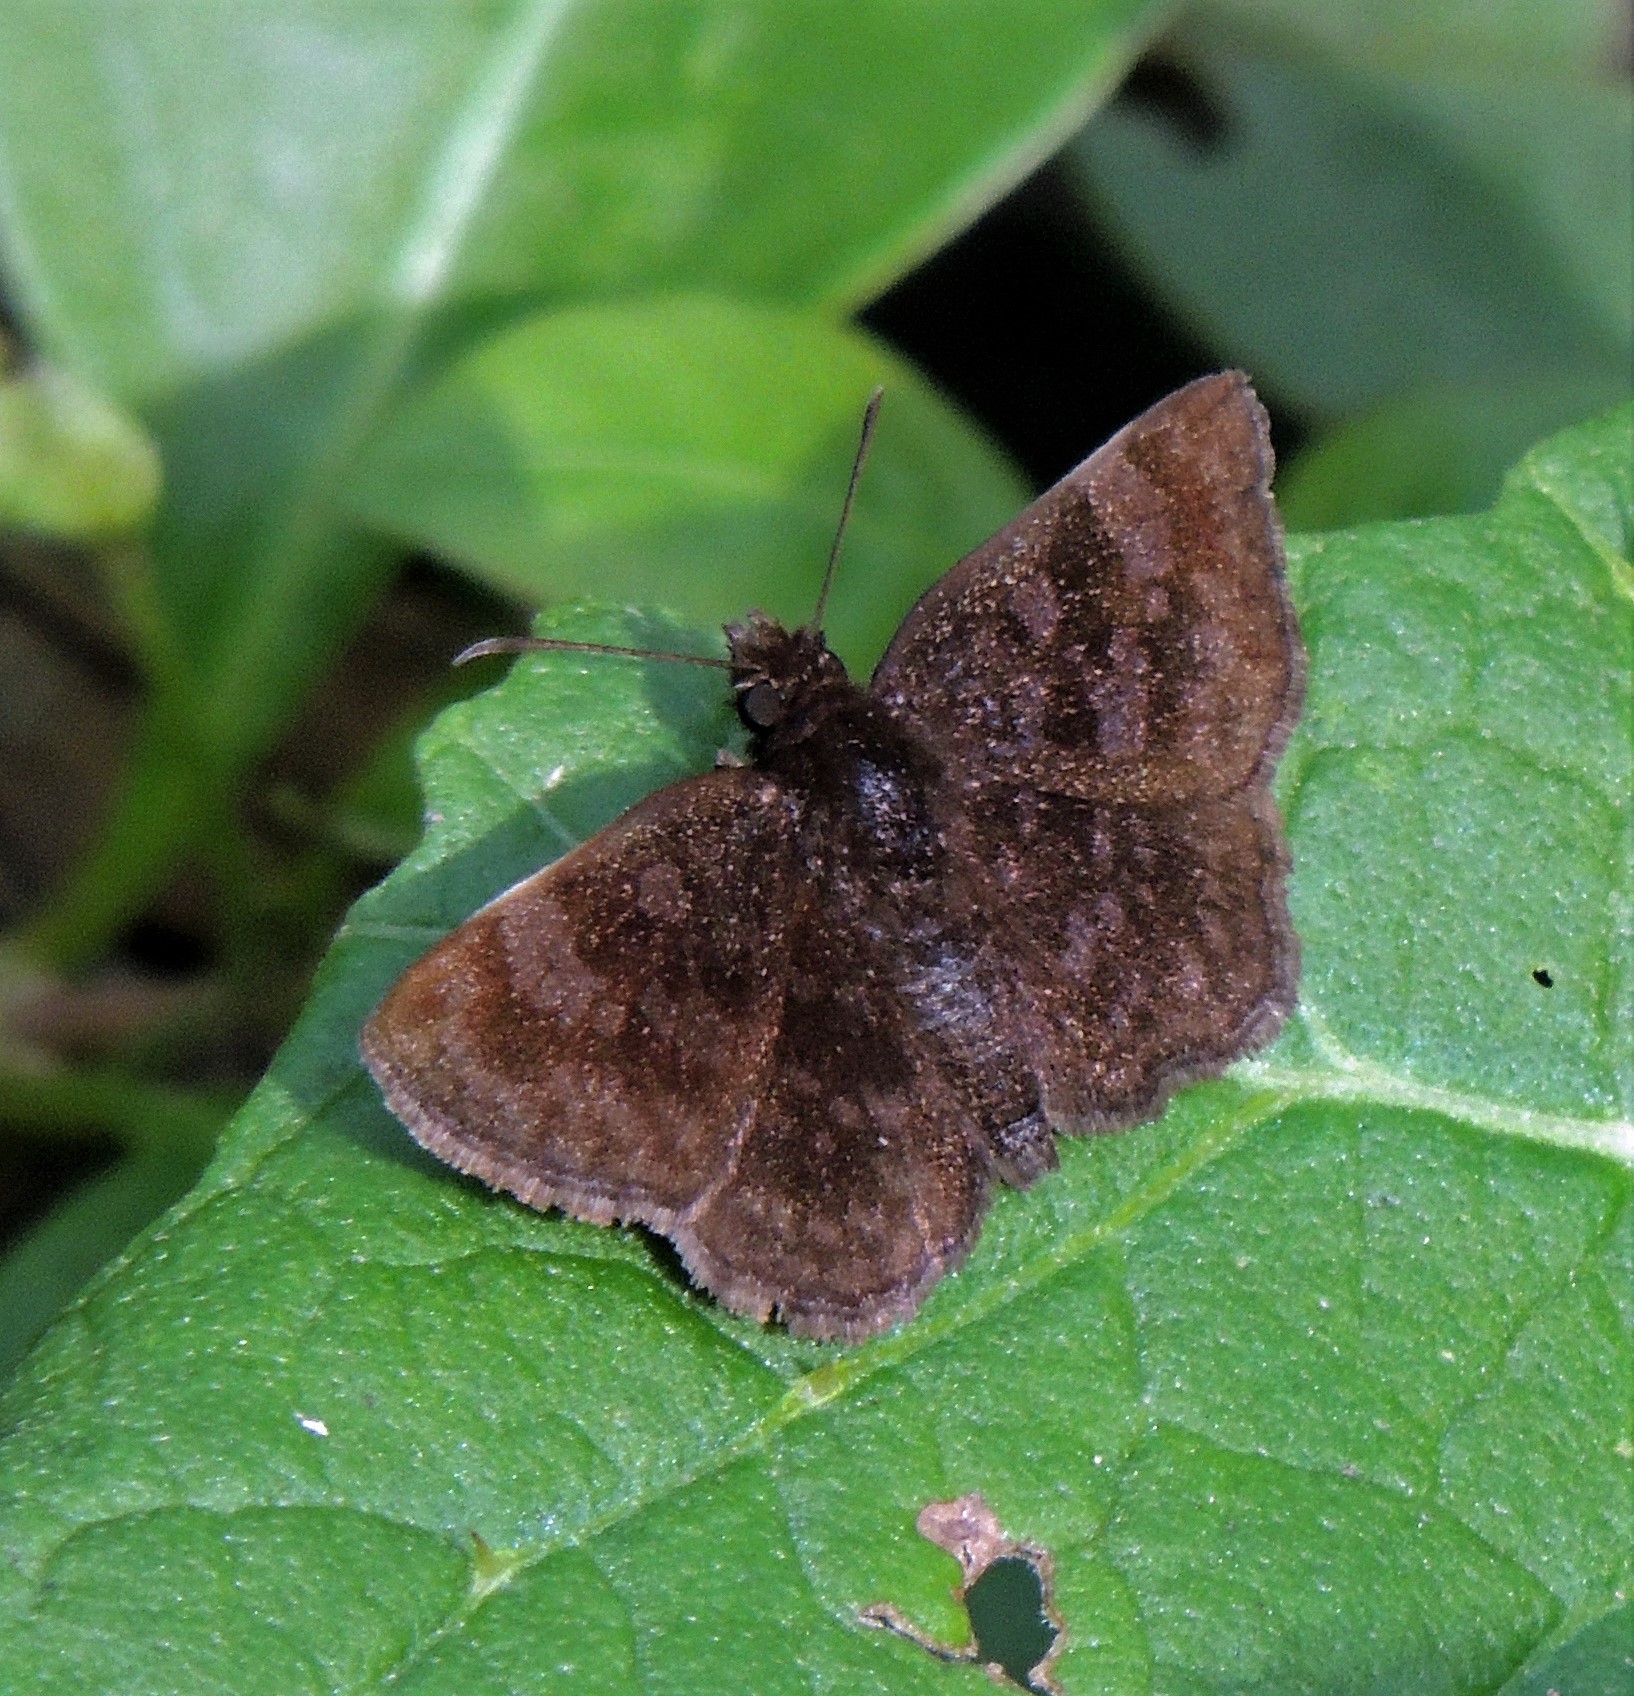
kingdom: Animalia
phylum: Arthropoda
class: Insecta
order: Lepidoptera
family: Hesperiidae
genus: Viola
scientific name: Viola minor
